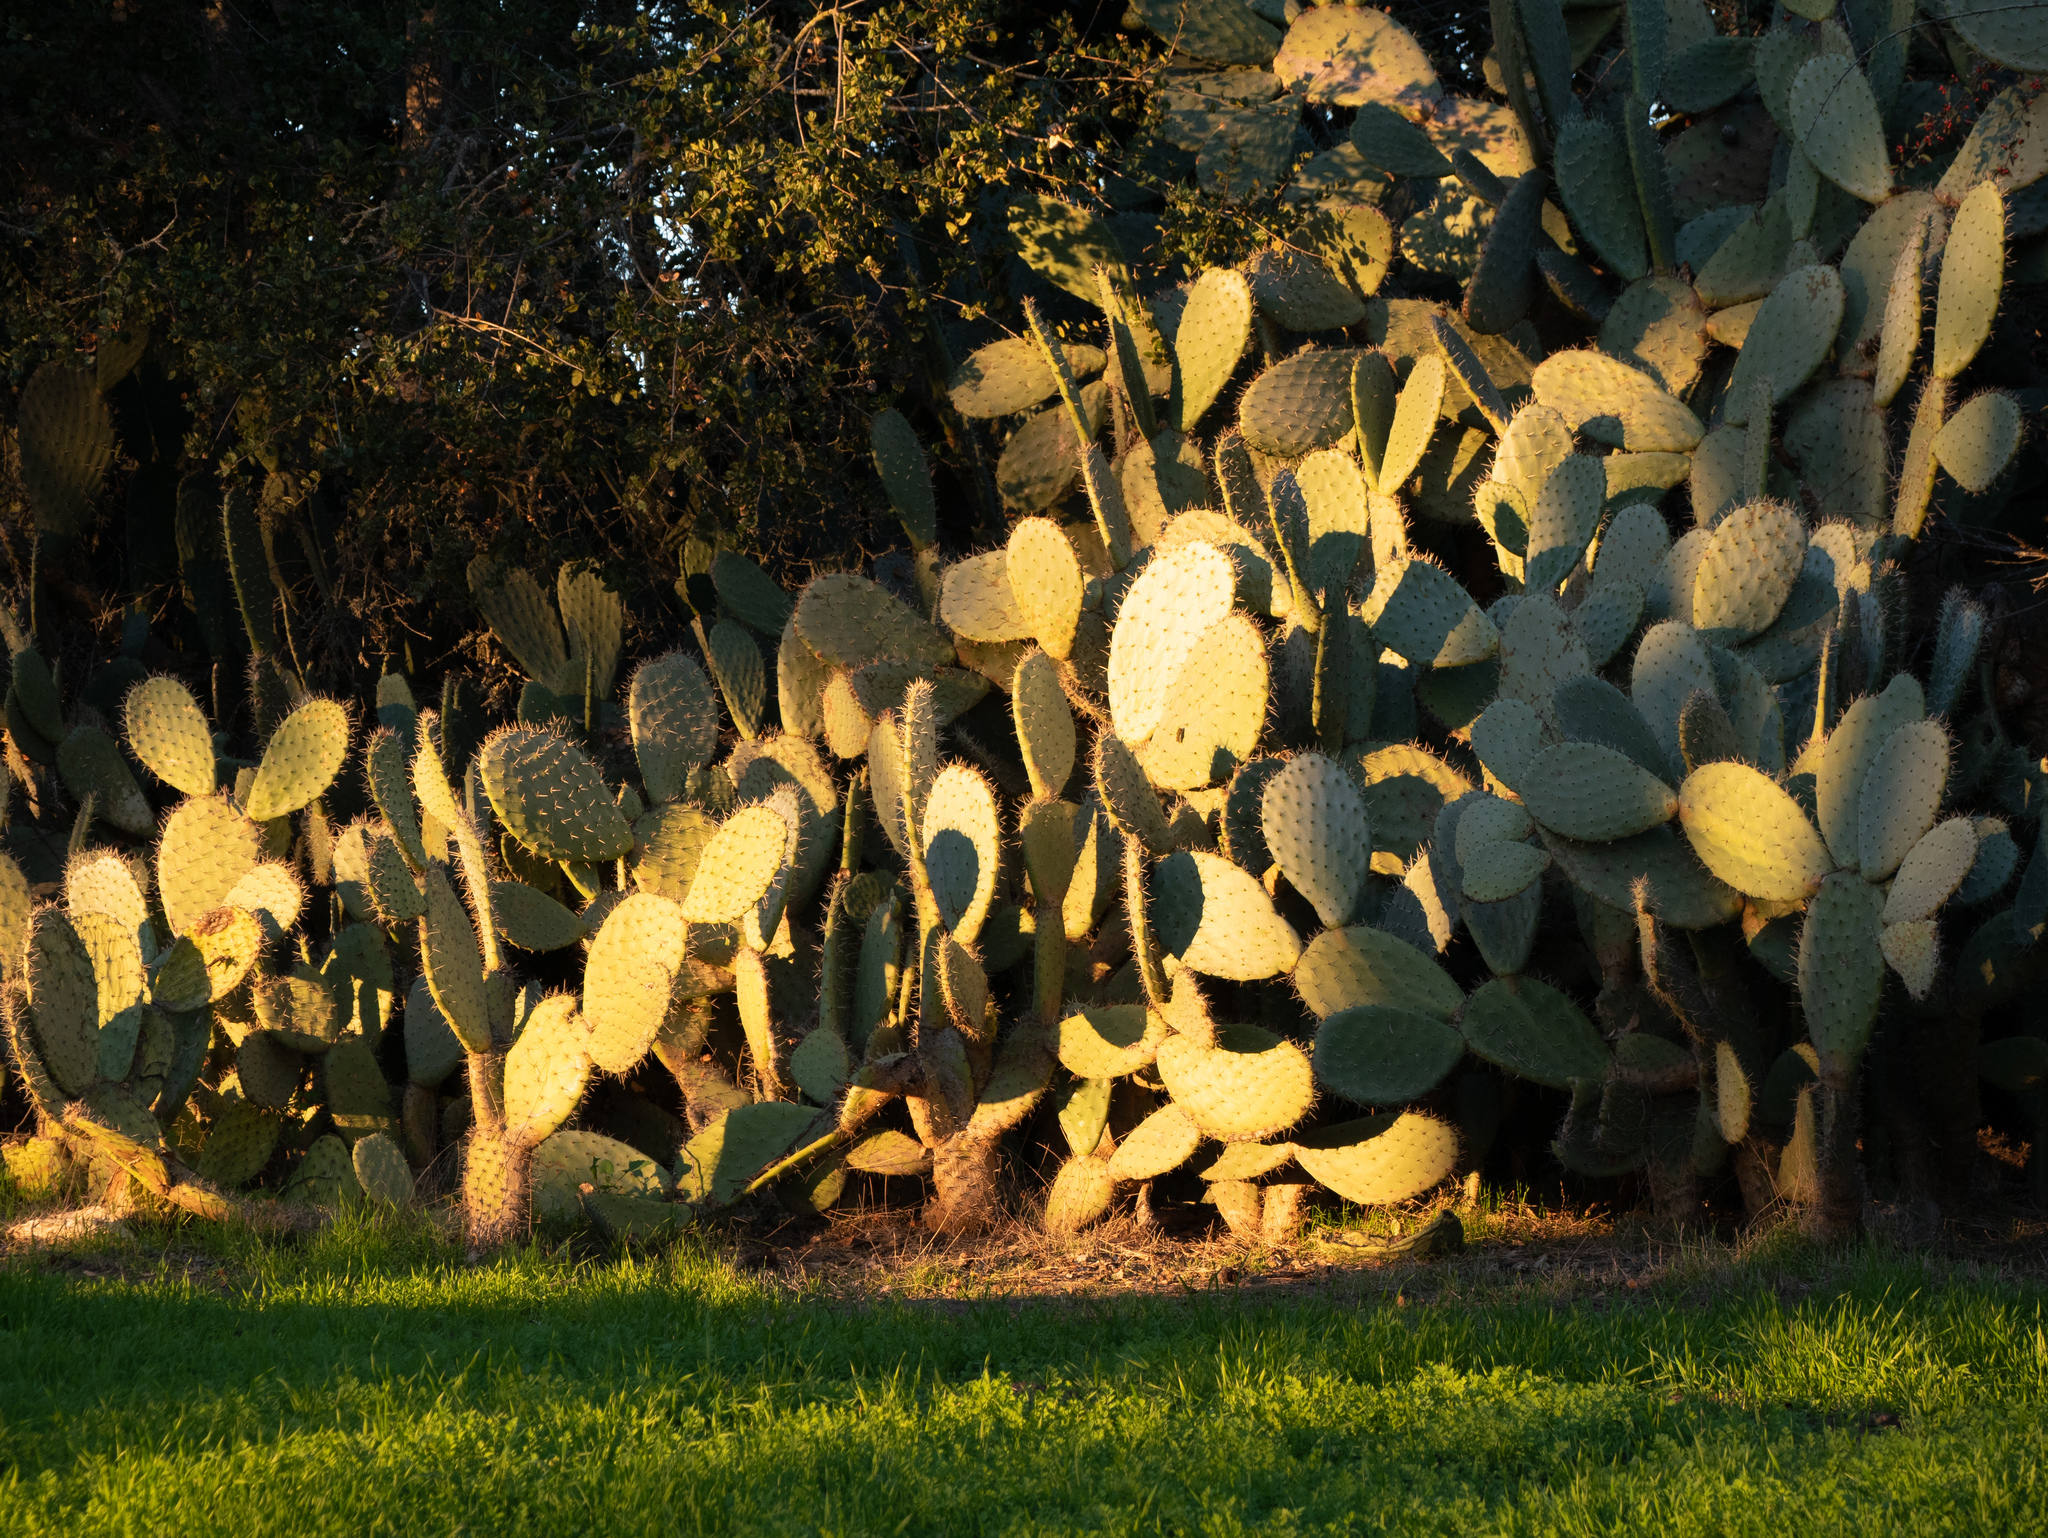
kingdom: Plantae
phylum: Tracheophyta
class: Magnoliopsida
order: Caryophyllales
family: Cactaceae
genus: Opuntia
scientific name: Opuntia ficus-indica
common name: Barbary fig
